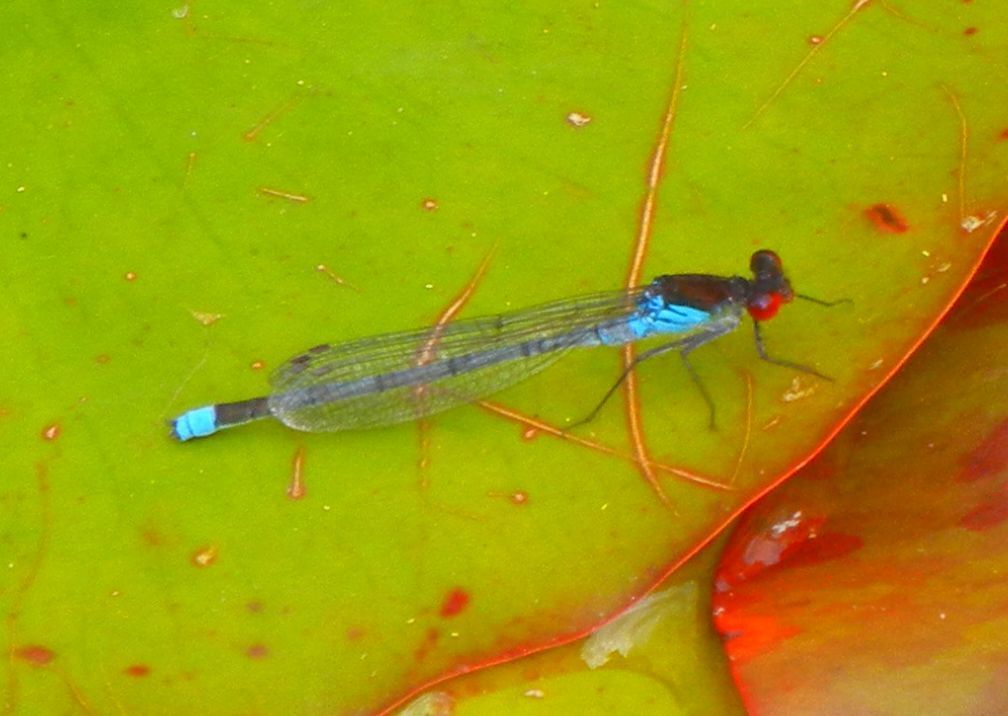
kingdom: Animalia
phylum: Arthropoda
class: Insecta
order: Odonata
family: Coenagrionidae
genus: Erythromma
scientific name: Erythromma najas
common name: Red-eyed damselfly
